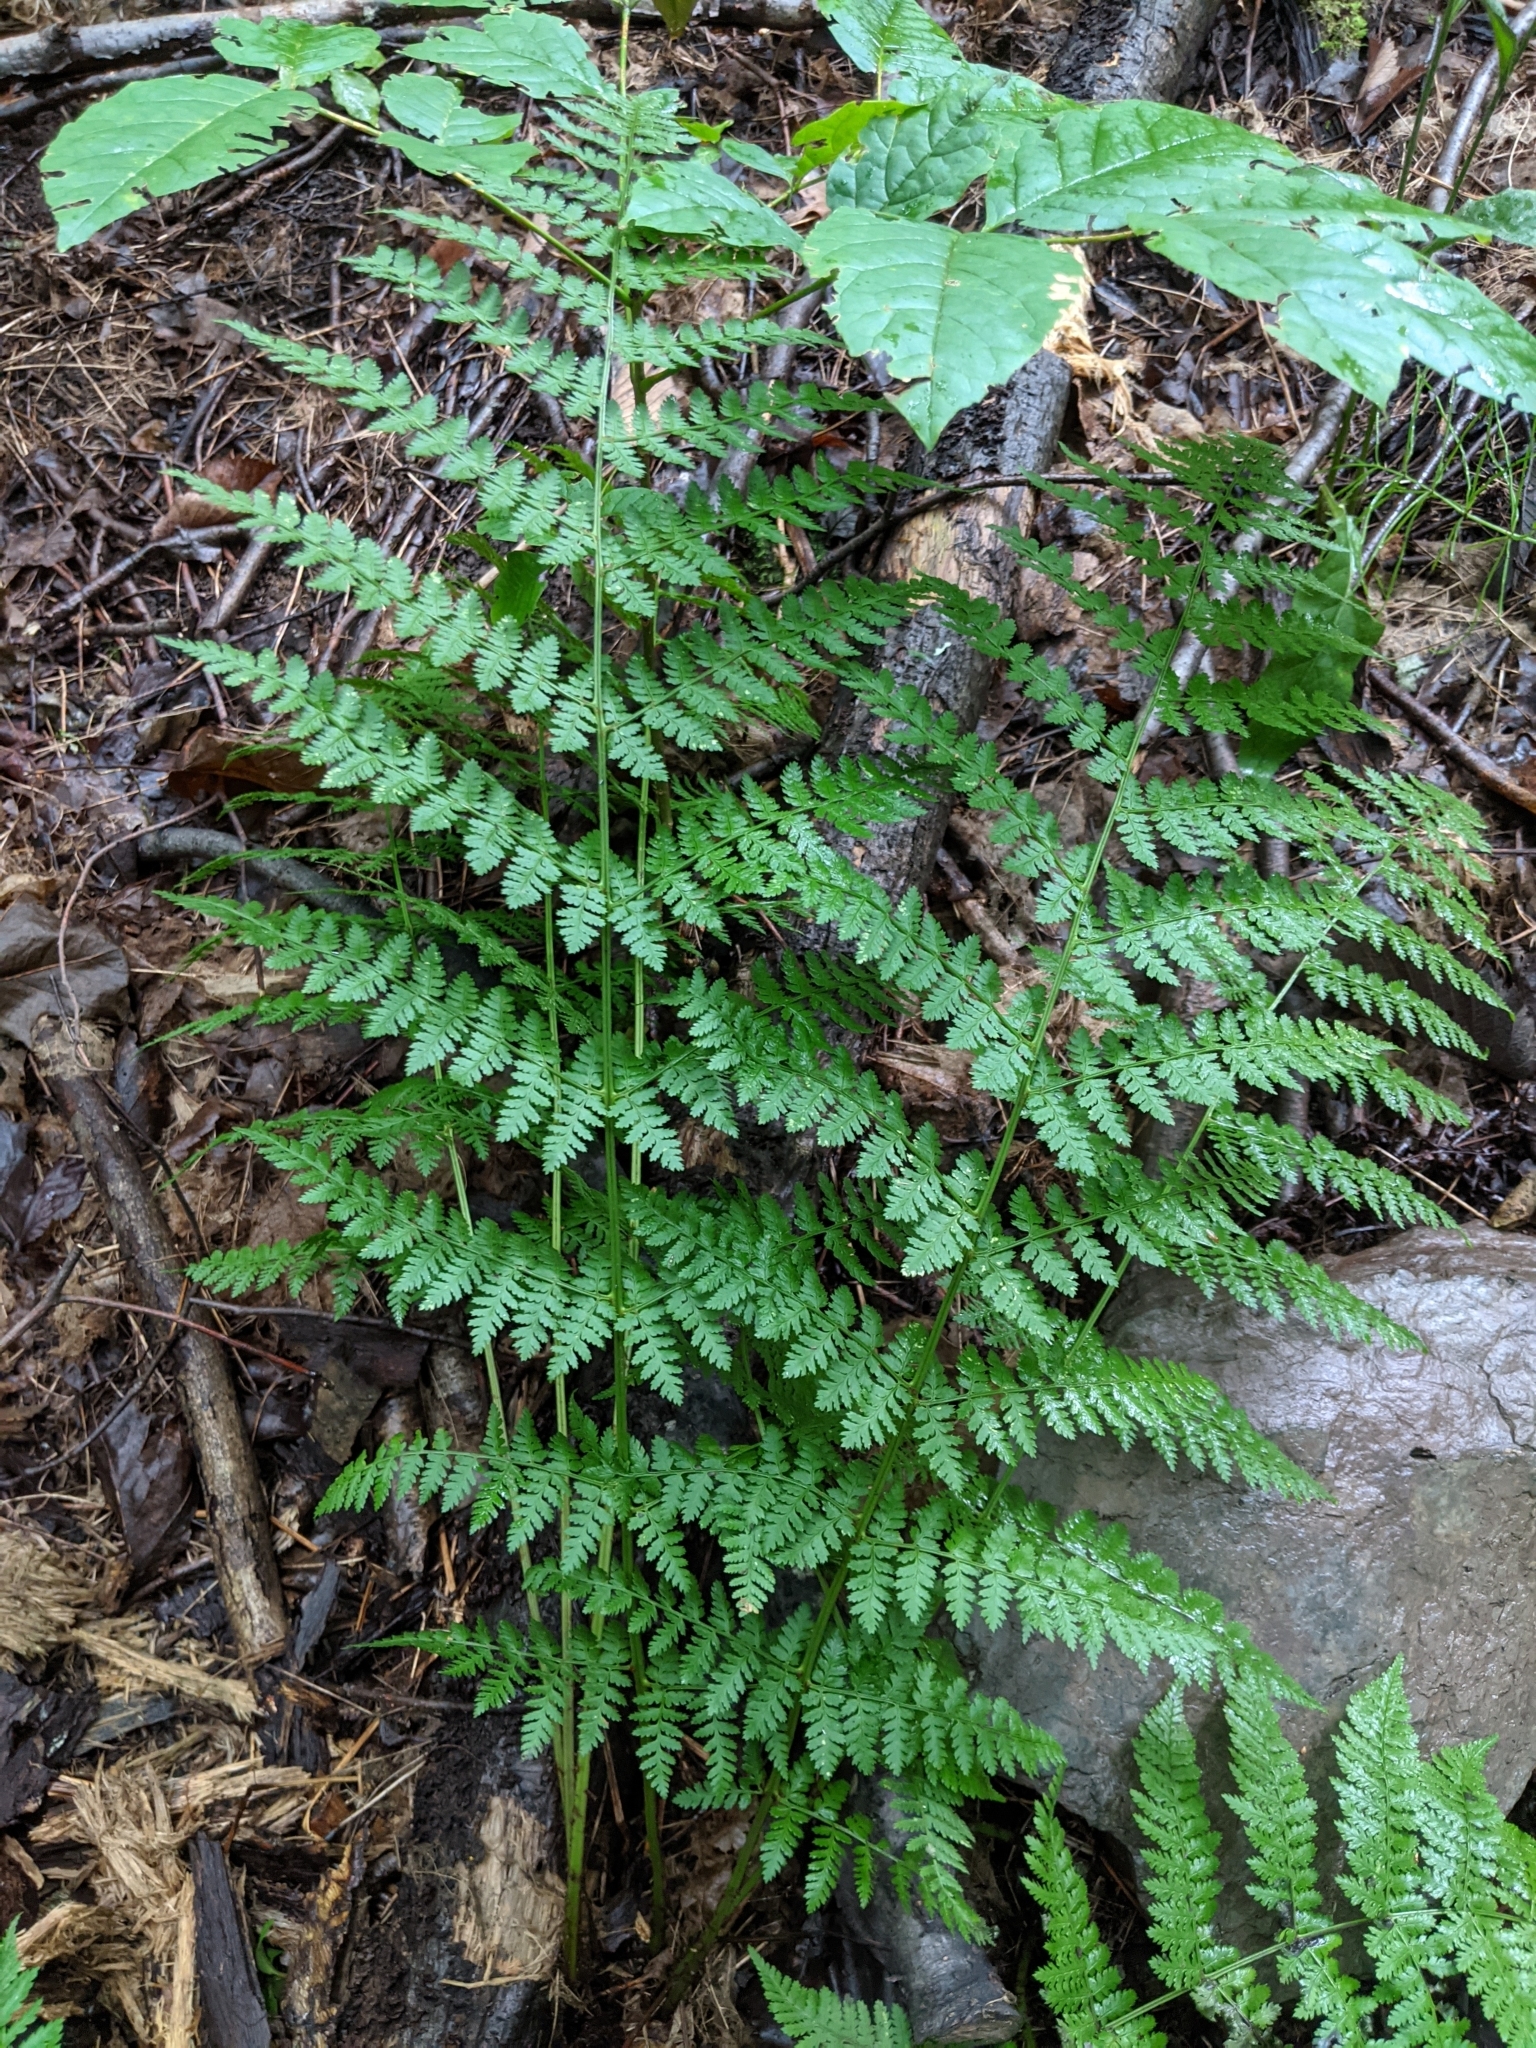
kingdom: Plantae
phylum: Tracheophyta
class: Polypodiopsida
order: Polypodiales
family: Dryopteridaceae
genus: Dryopteris
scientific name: Dryopteris intermedia
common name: Evergreen wood fern
